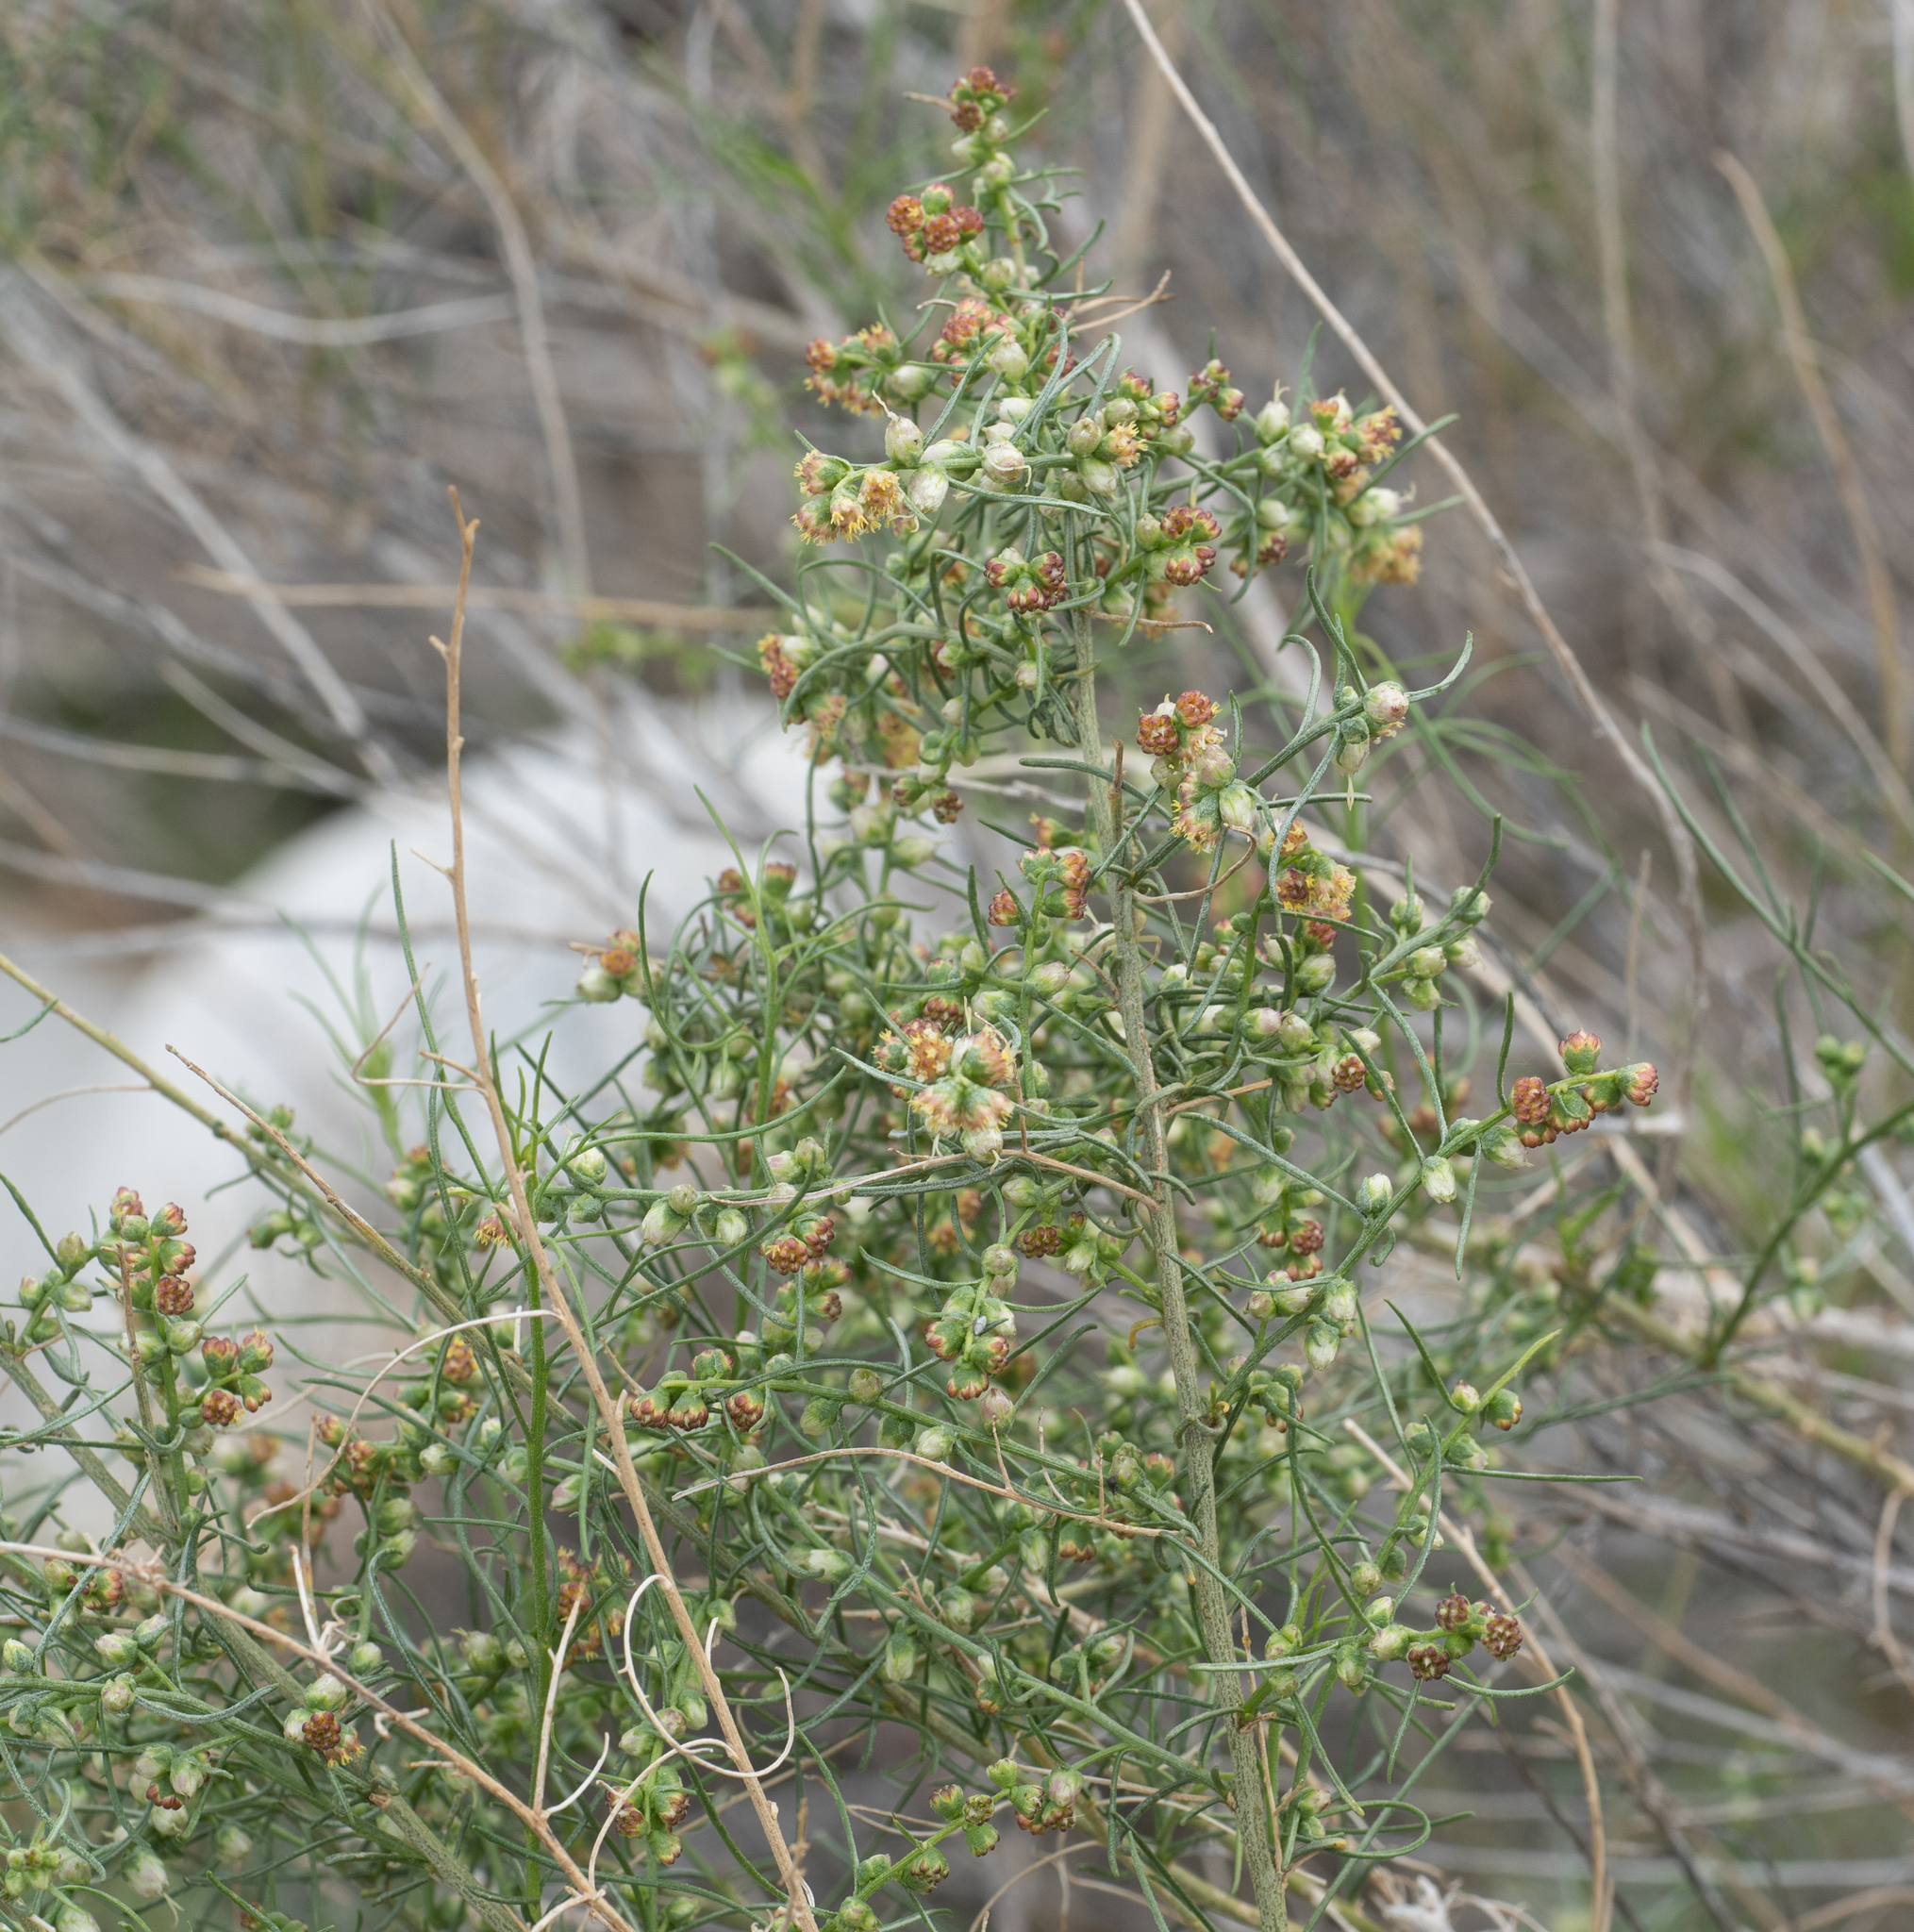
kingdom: Plantae
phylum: Tracheophyta
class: Magnoliopsida
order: Asterales
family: Asteraceae
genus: Ambrosia
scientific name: Ambrosia salsola
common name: Burrobrush
